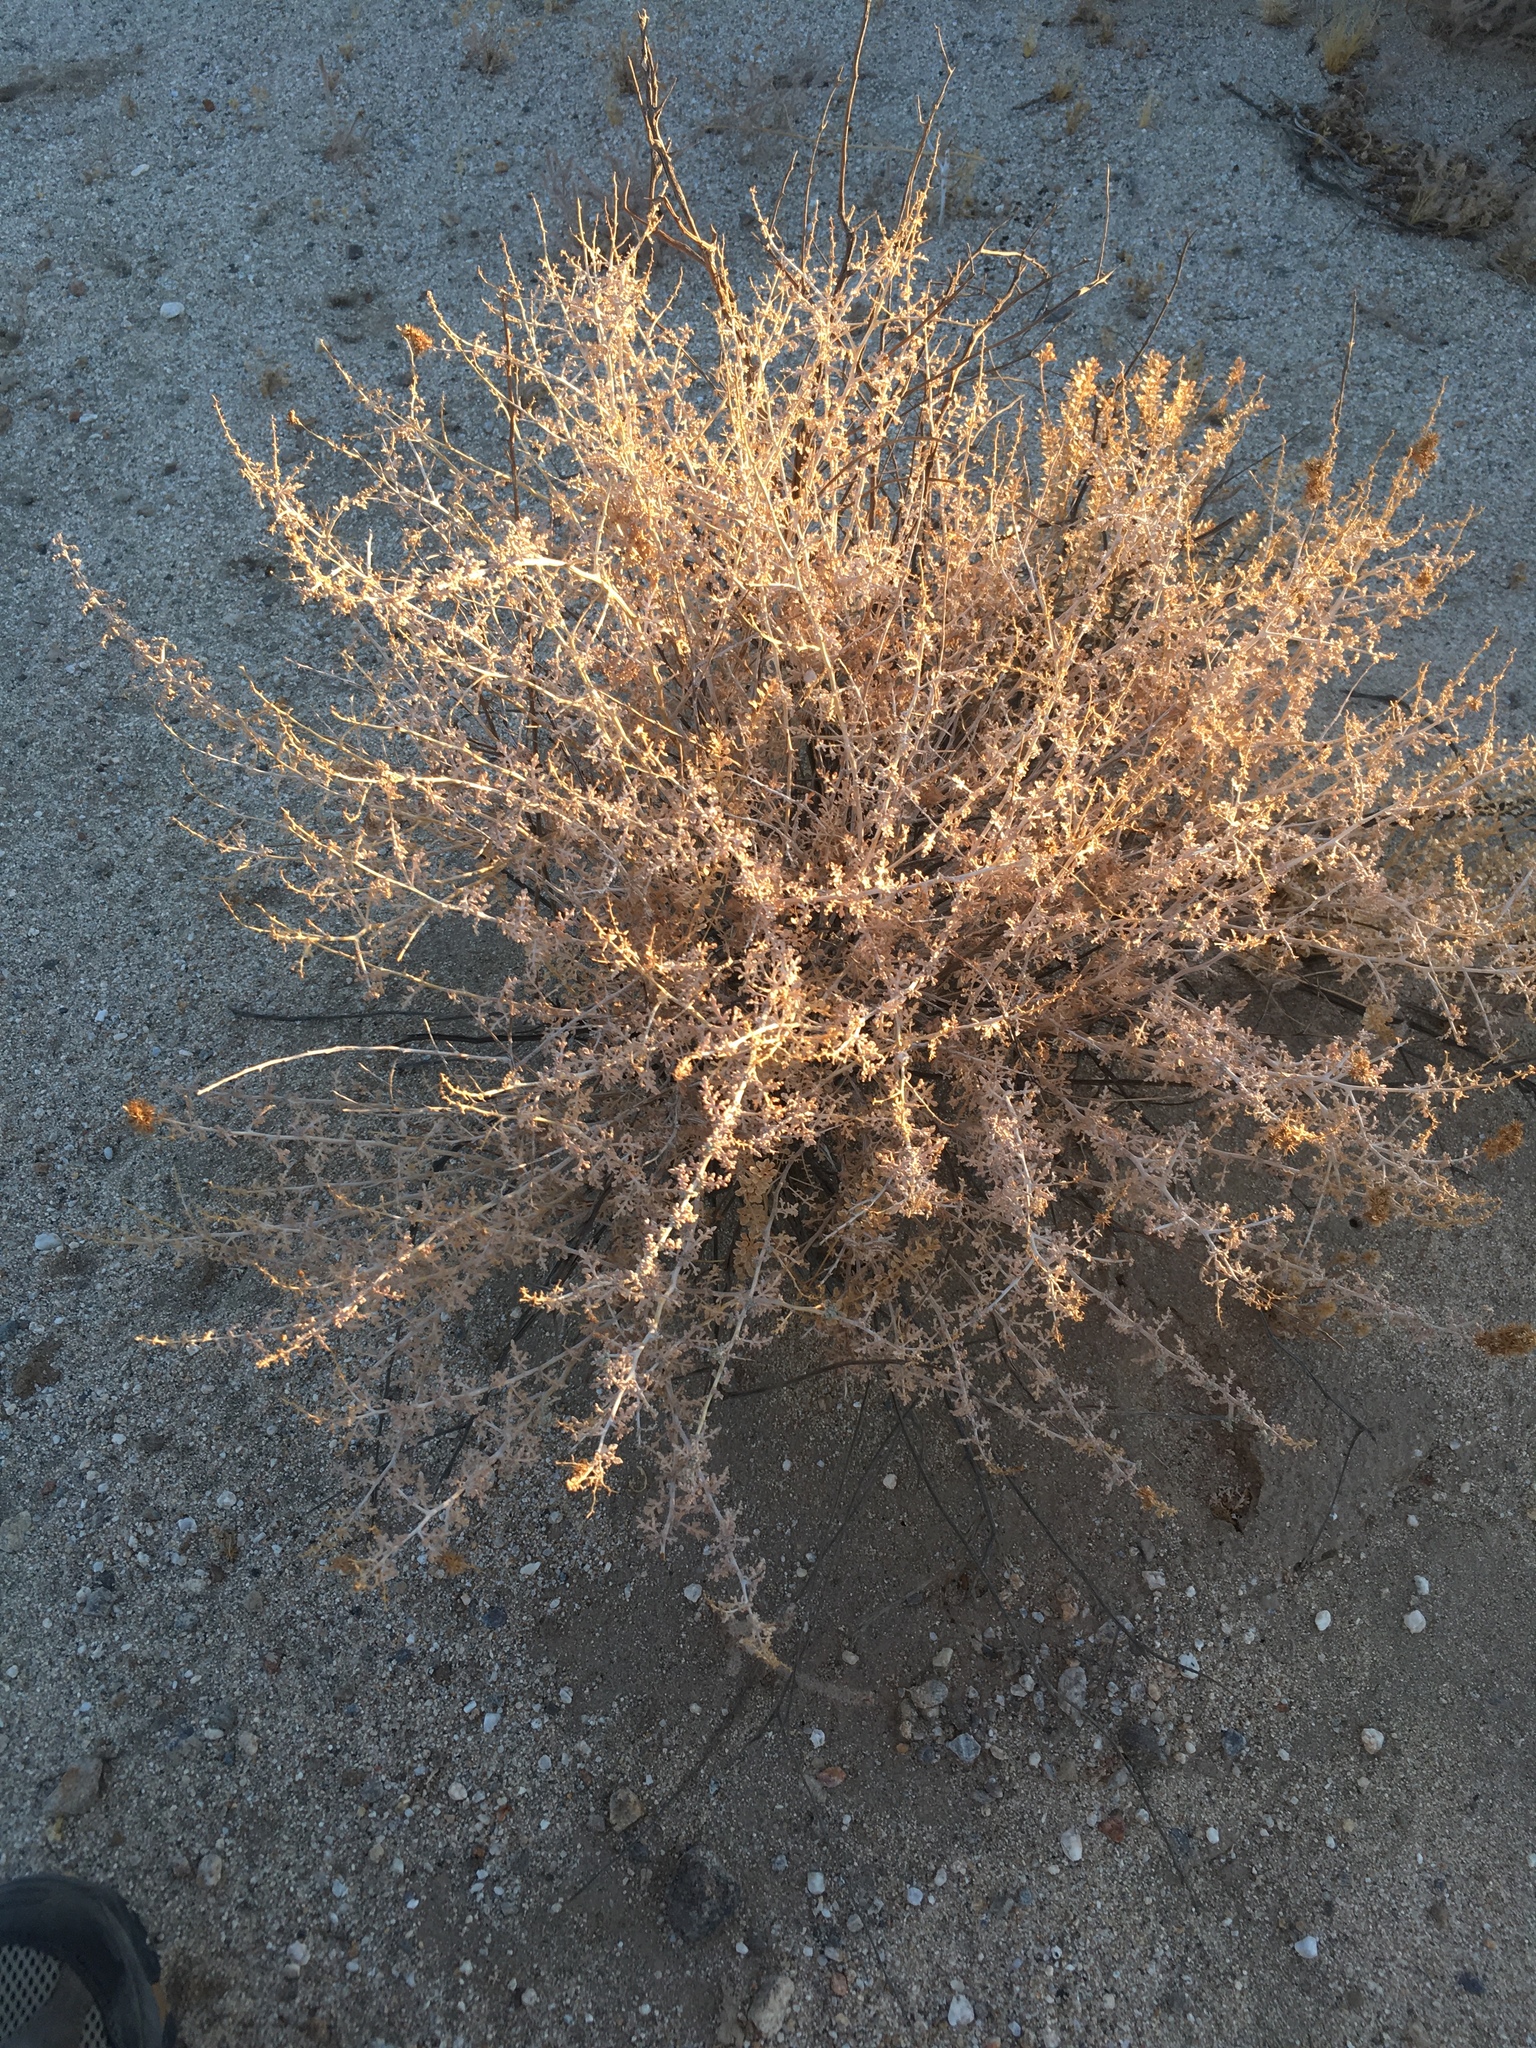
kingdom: Plantae
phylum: Tracheophyta
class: Magnoliopsida
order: Asterales
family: Asteraceae
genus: Ambrosia
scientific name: Ambrosia dumosa
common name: Bur-sage
